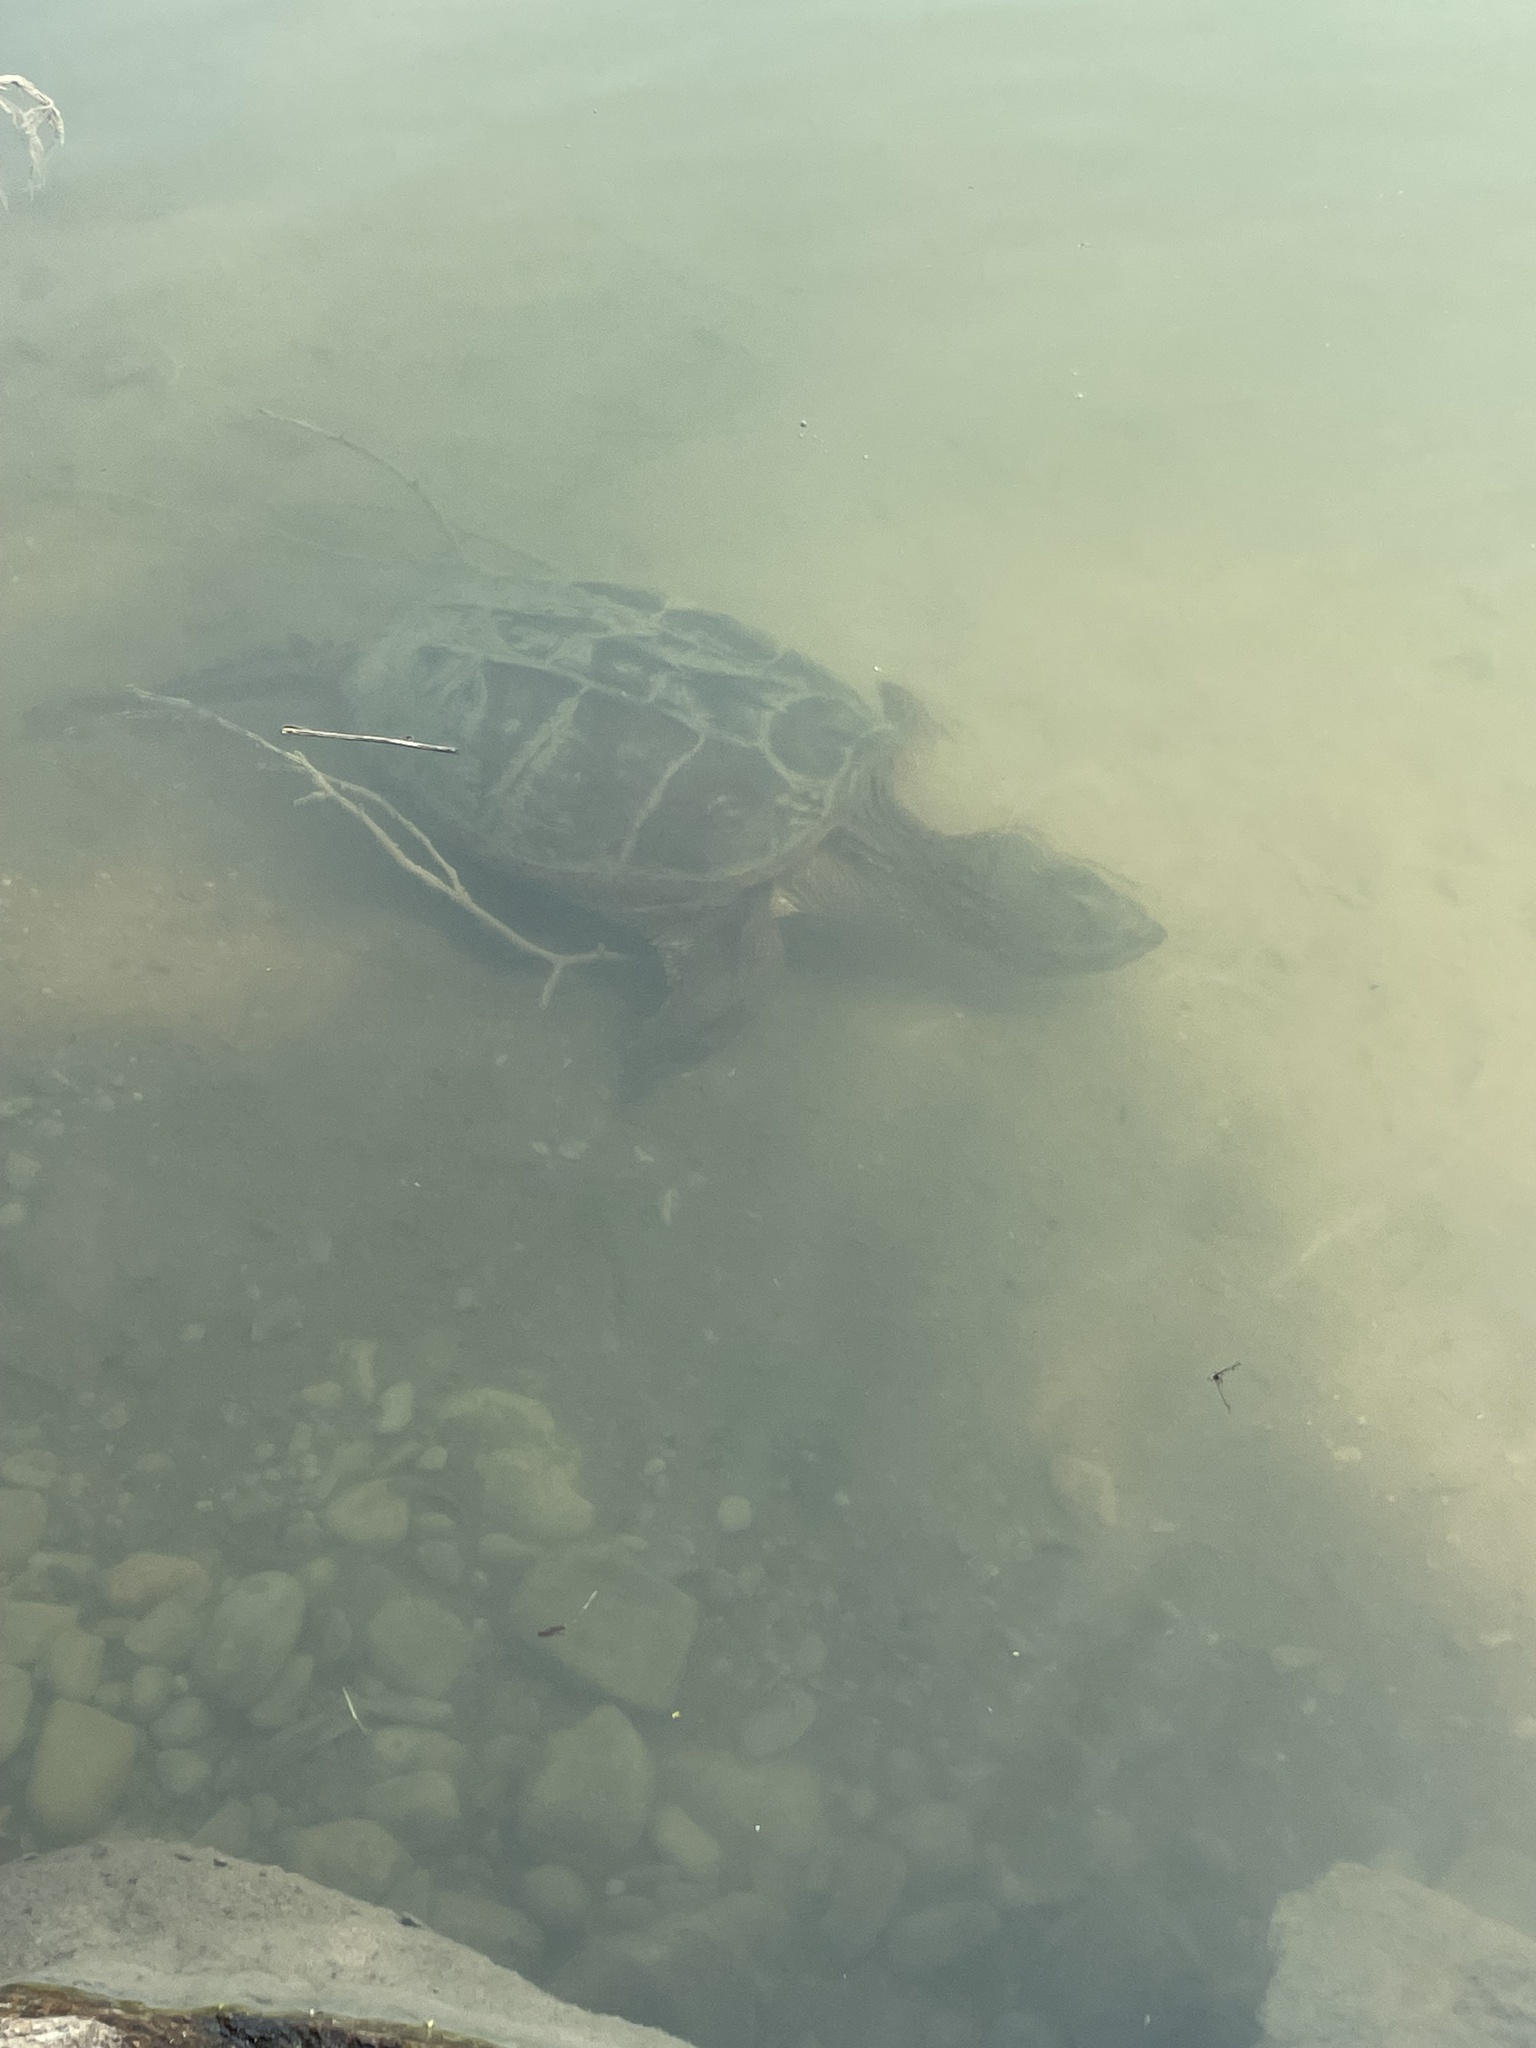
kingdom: Animalia
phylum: Chordata
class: Testudines
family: Chelydridae
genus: Chelydra
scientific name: Chelydra serpentina
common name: Common snapping turtle
